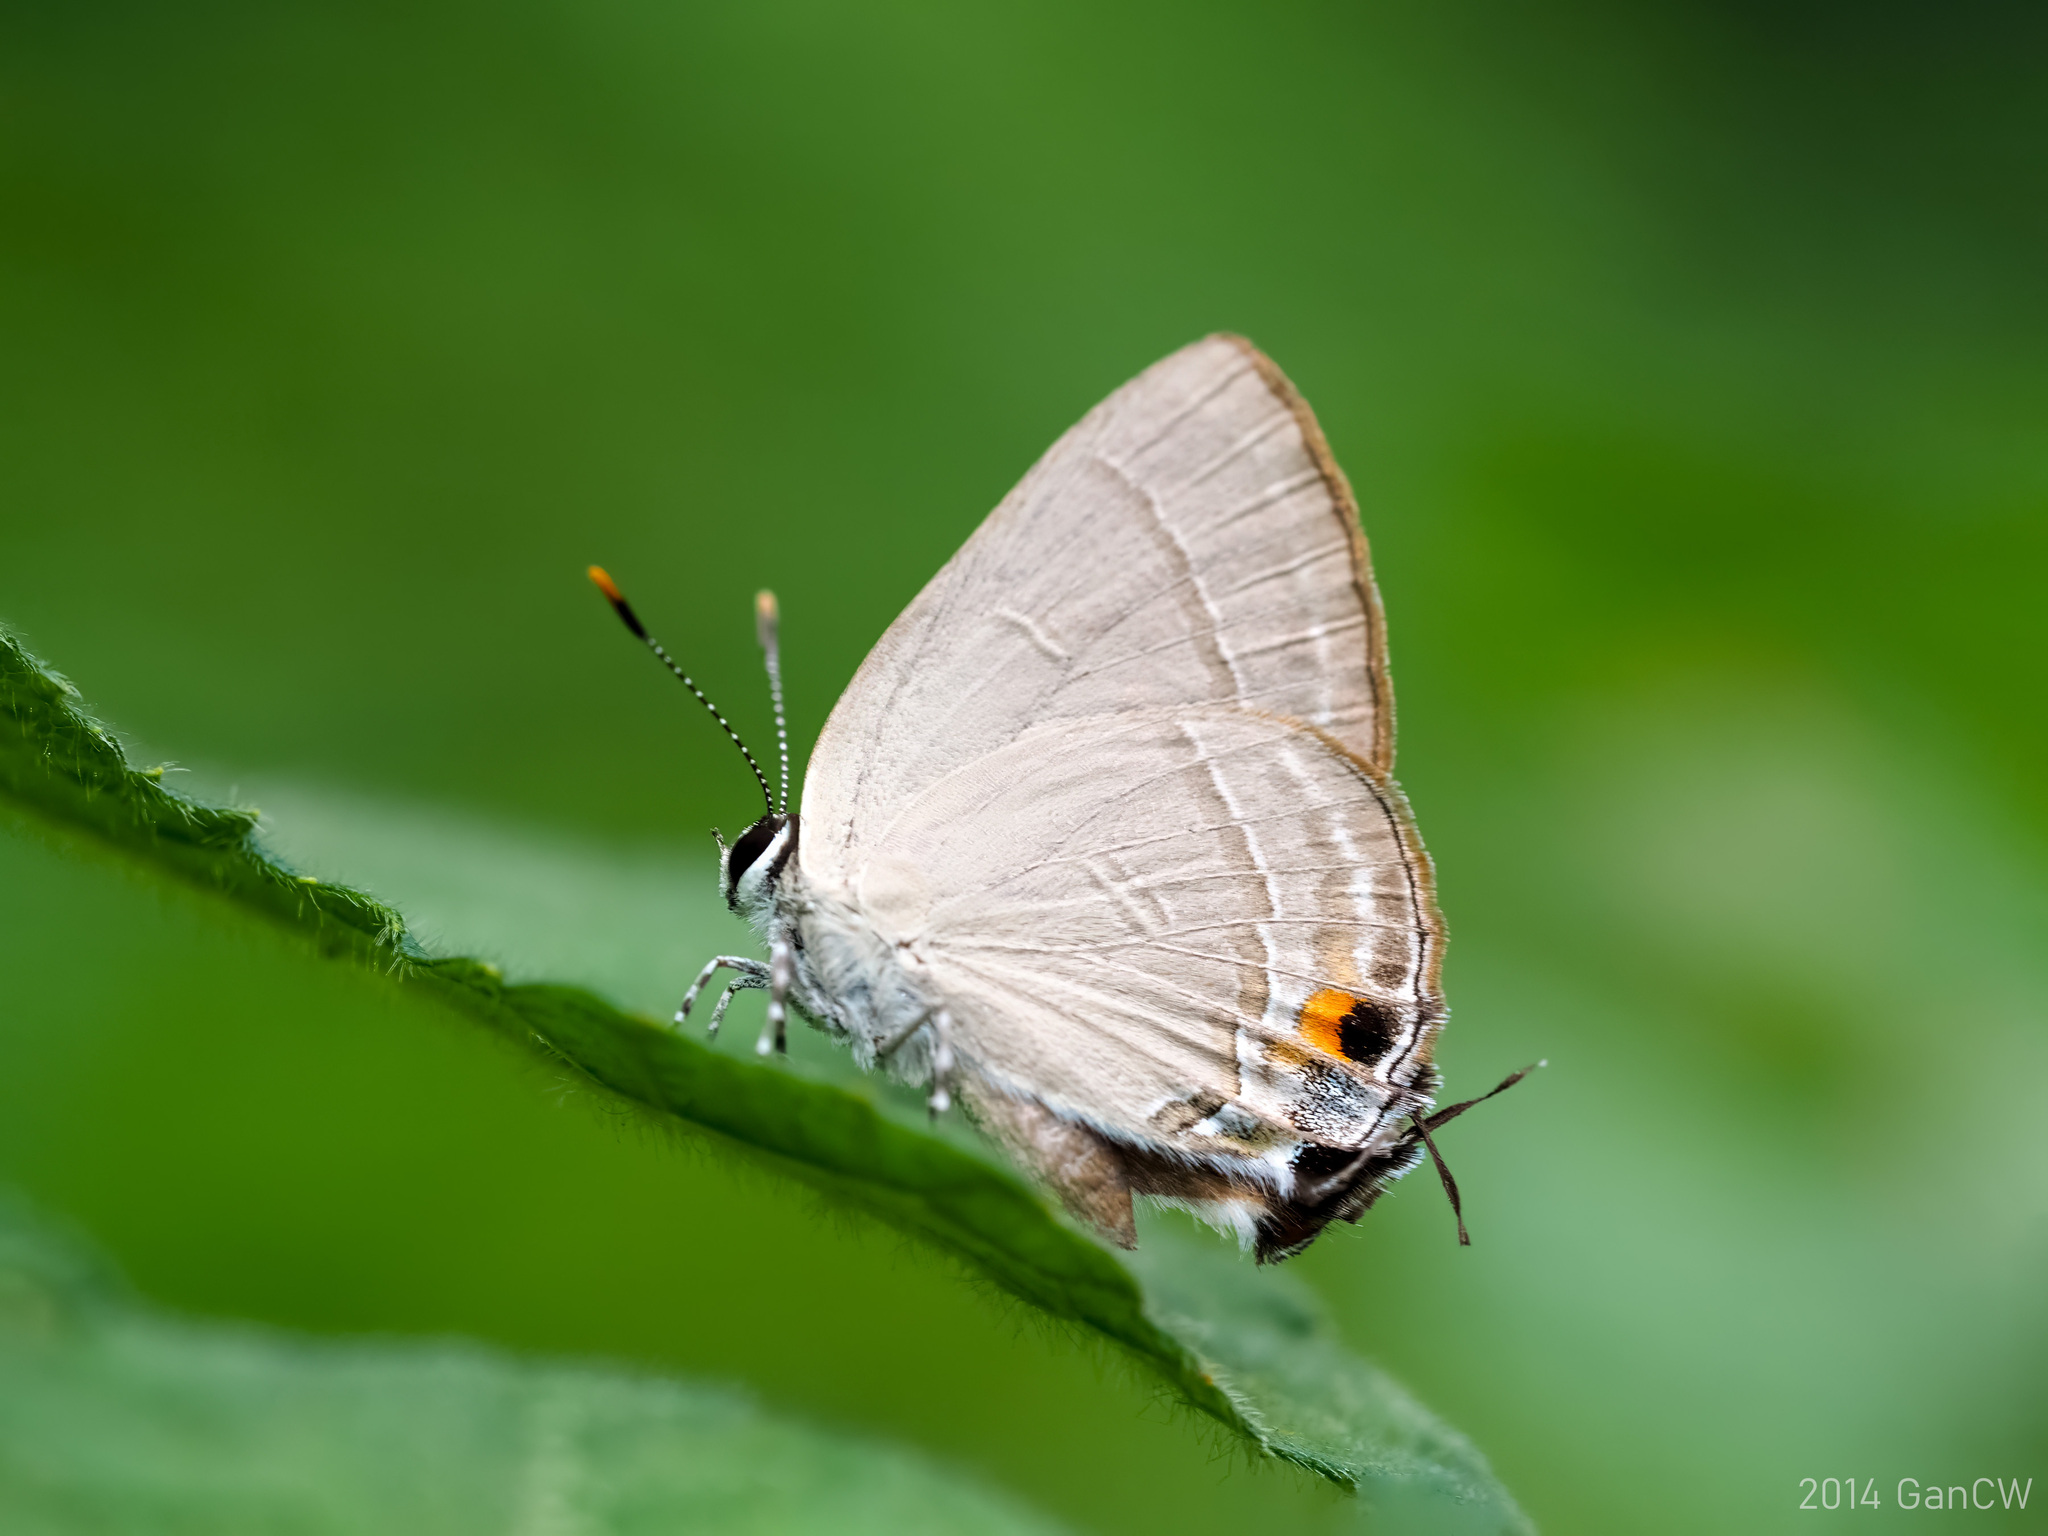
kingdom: Animalia
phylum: Arthropoda
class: Insecta
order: Lepidoptera
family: Lycaenidae
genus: Rapala
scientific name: Rapala iarbus
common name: Common red flash
